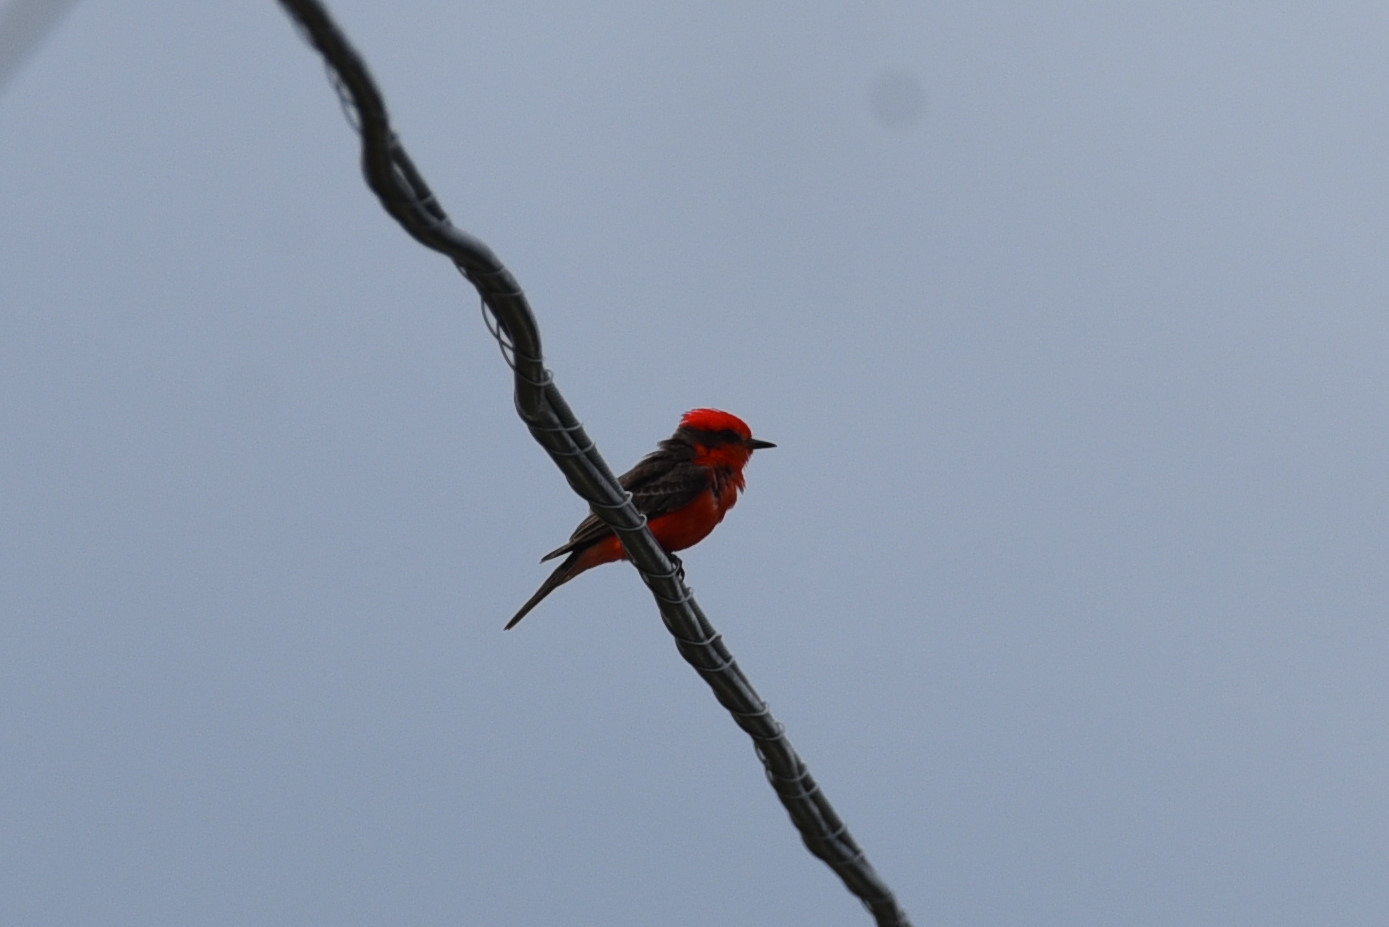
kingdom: Animalia
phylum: Chordata
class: Aves
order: Passeriformes
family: Tyrannidae
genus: Pyrocephalus
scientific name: Pyrocephalus rubinus
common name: Vermilion flycatcher
